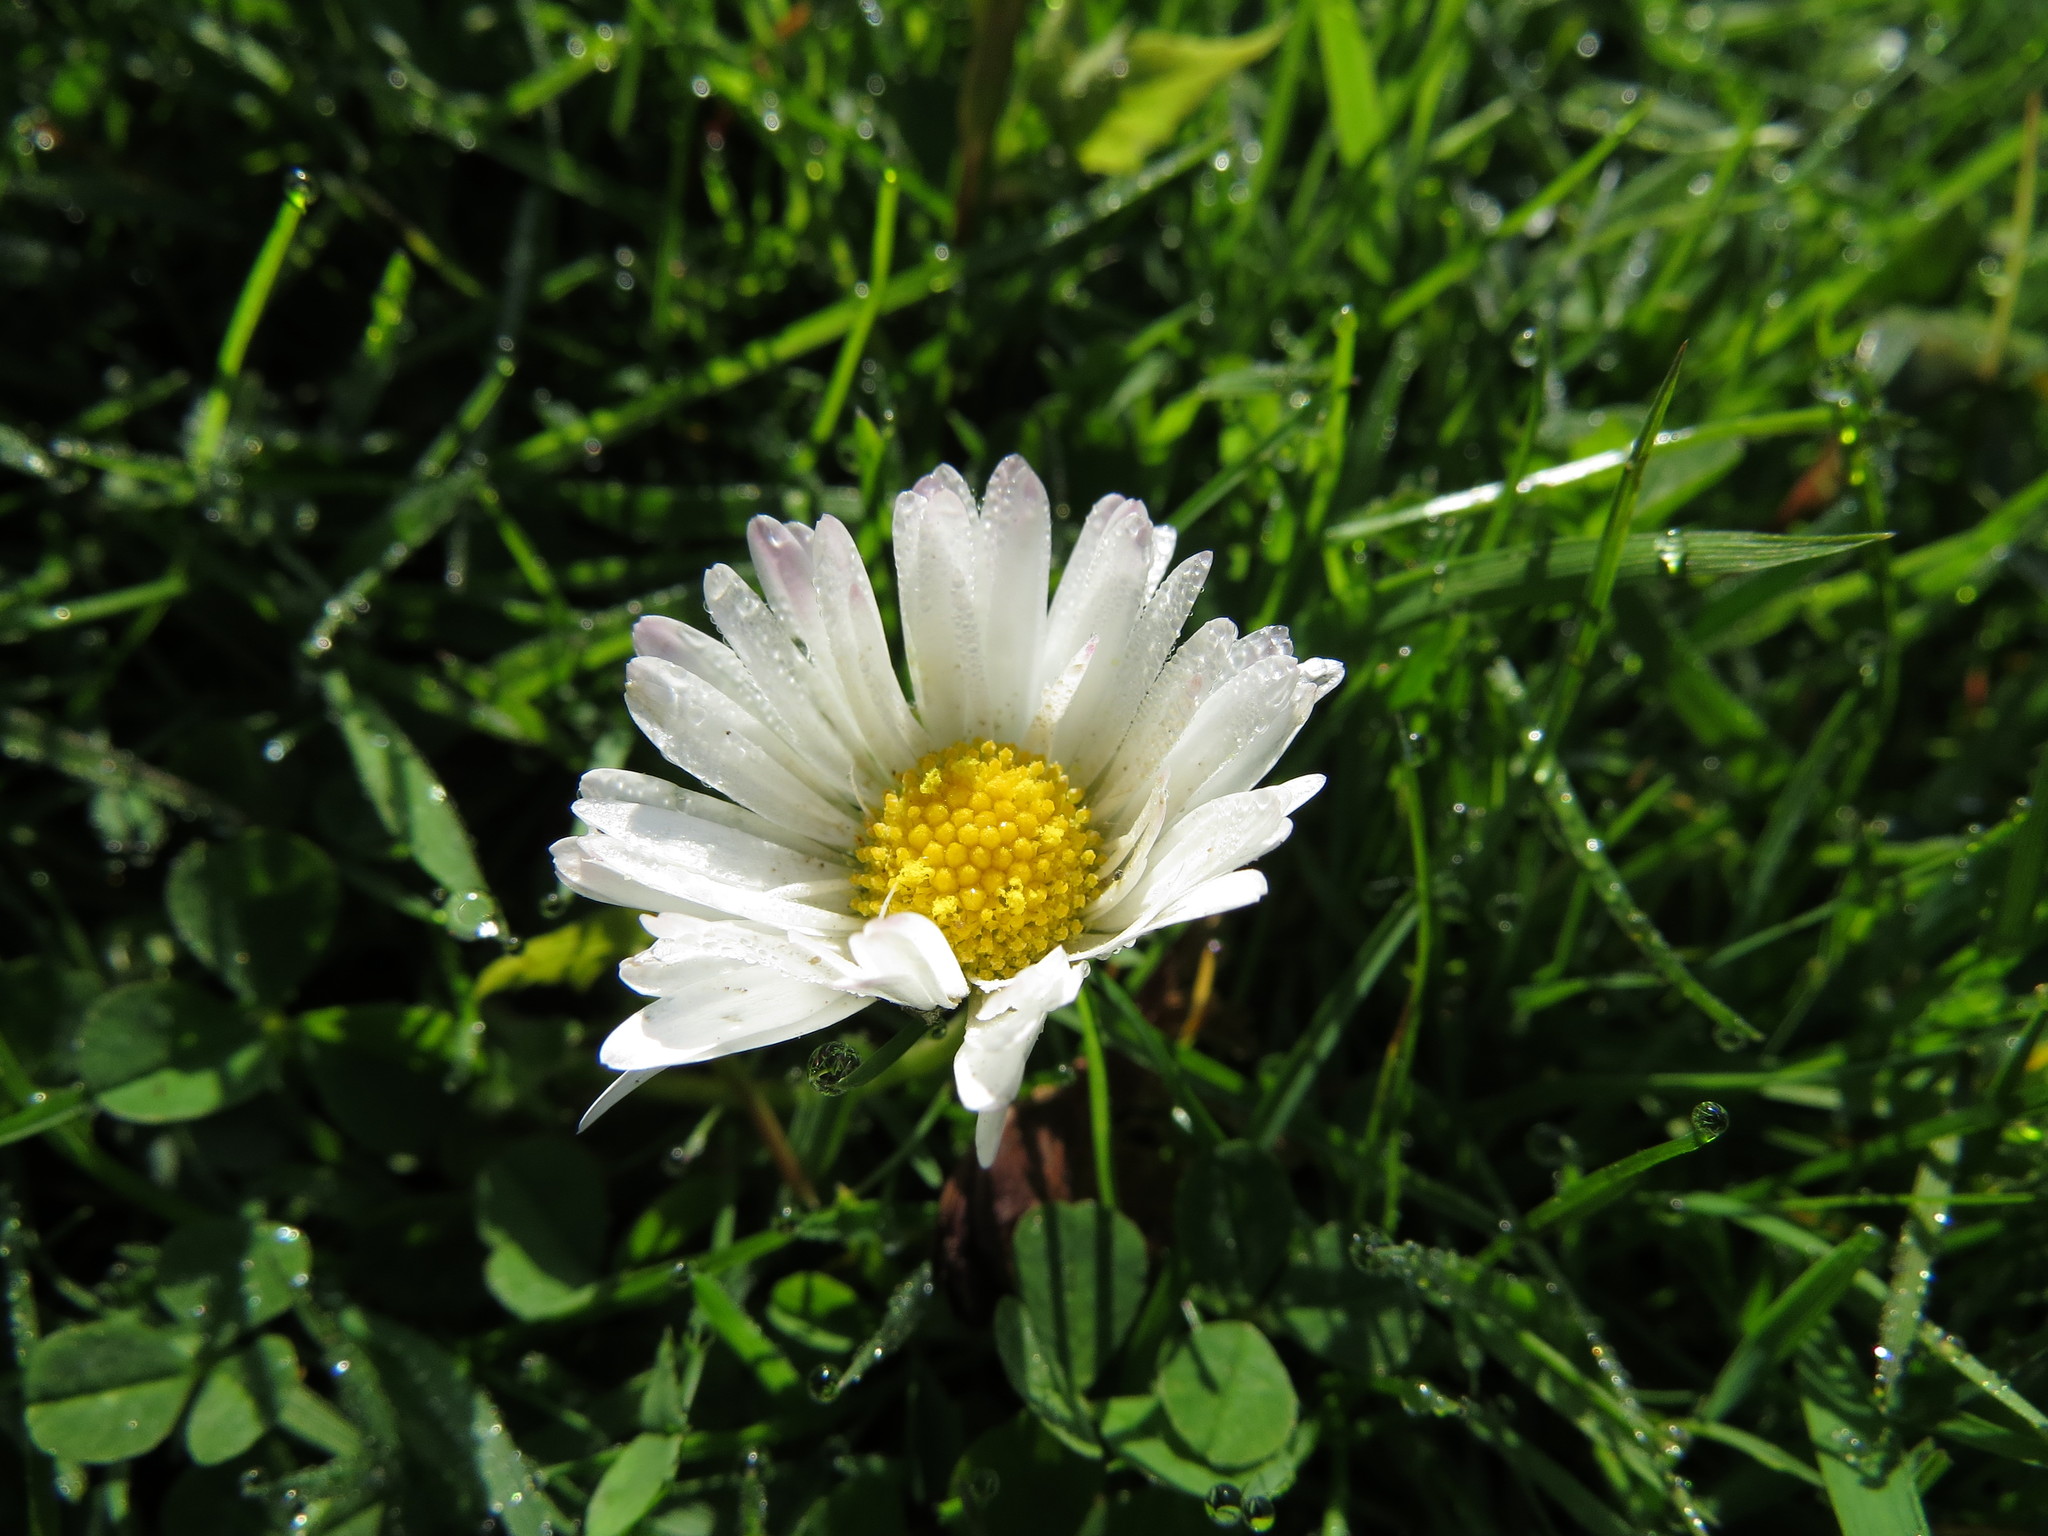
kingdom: Plantae
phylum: Tracheophyta
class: Magnoliopsida
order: Asterales
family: Asteraceae
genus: Bellis
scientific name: Bellis perennis
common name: Lawndaisy
